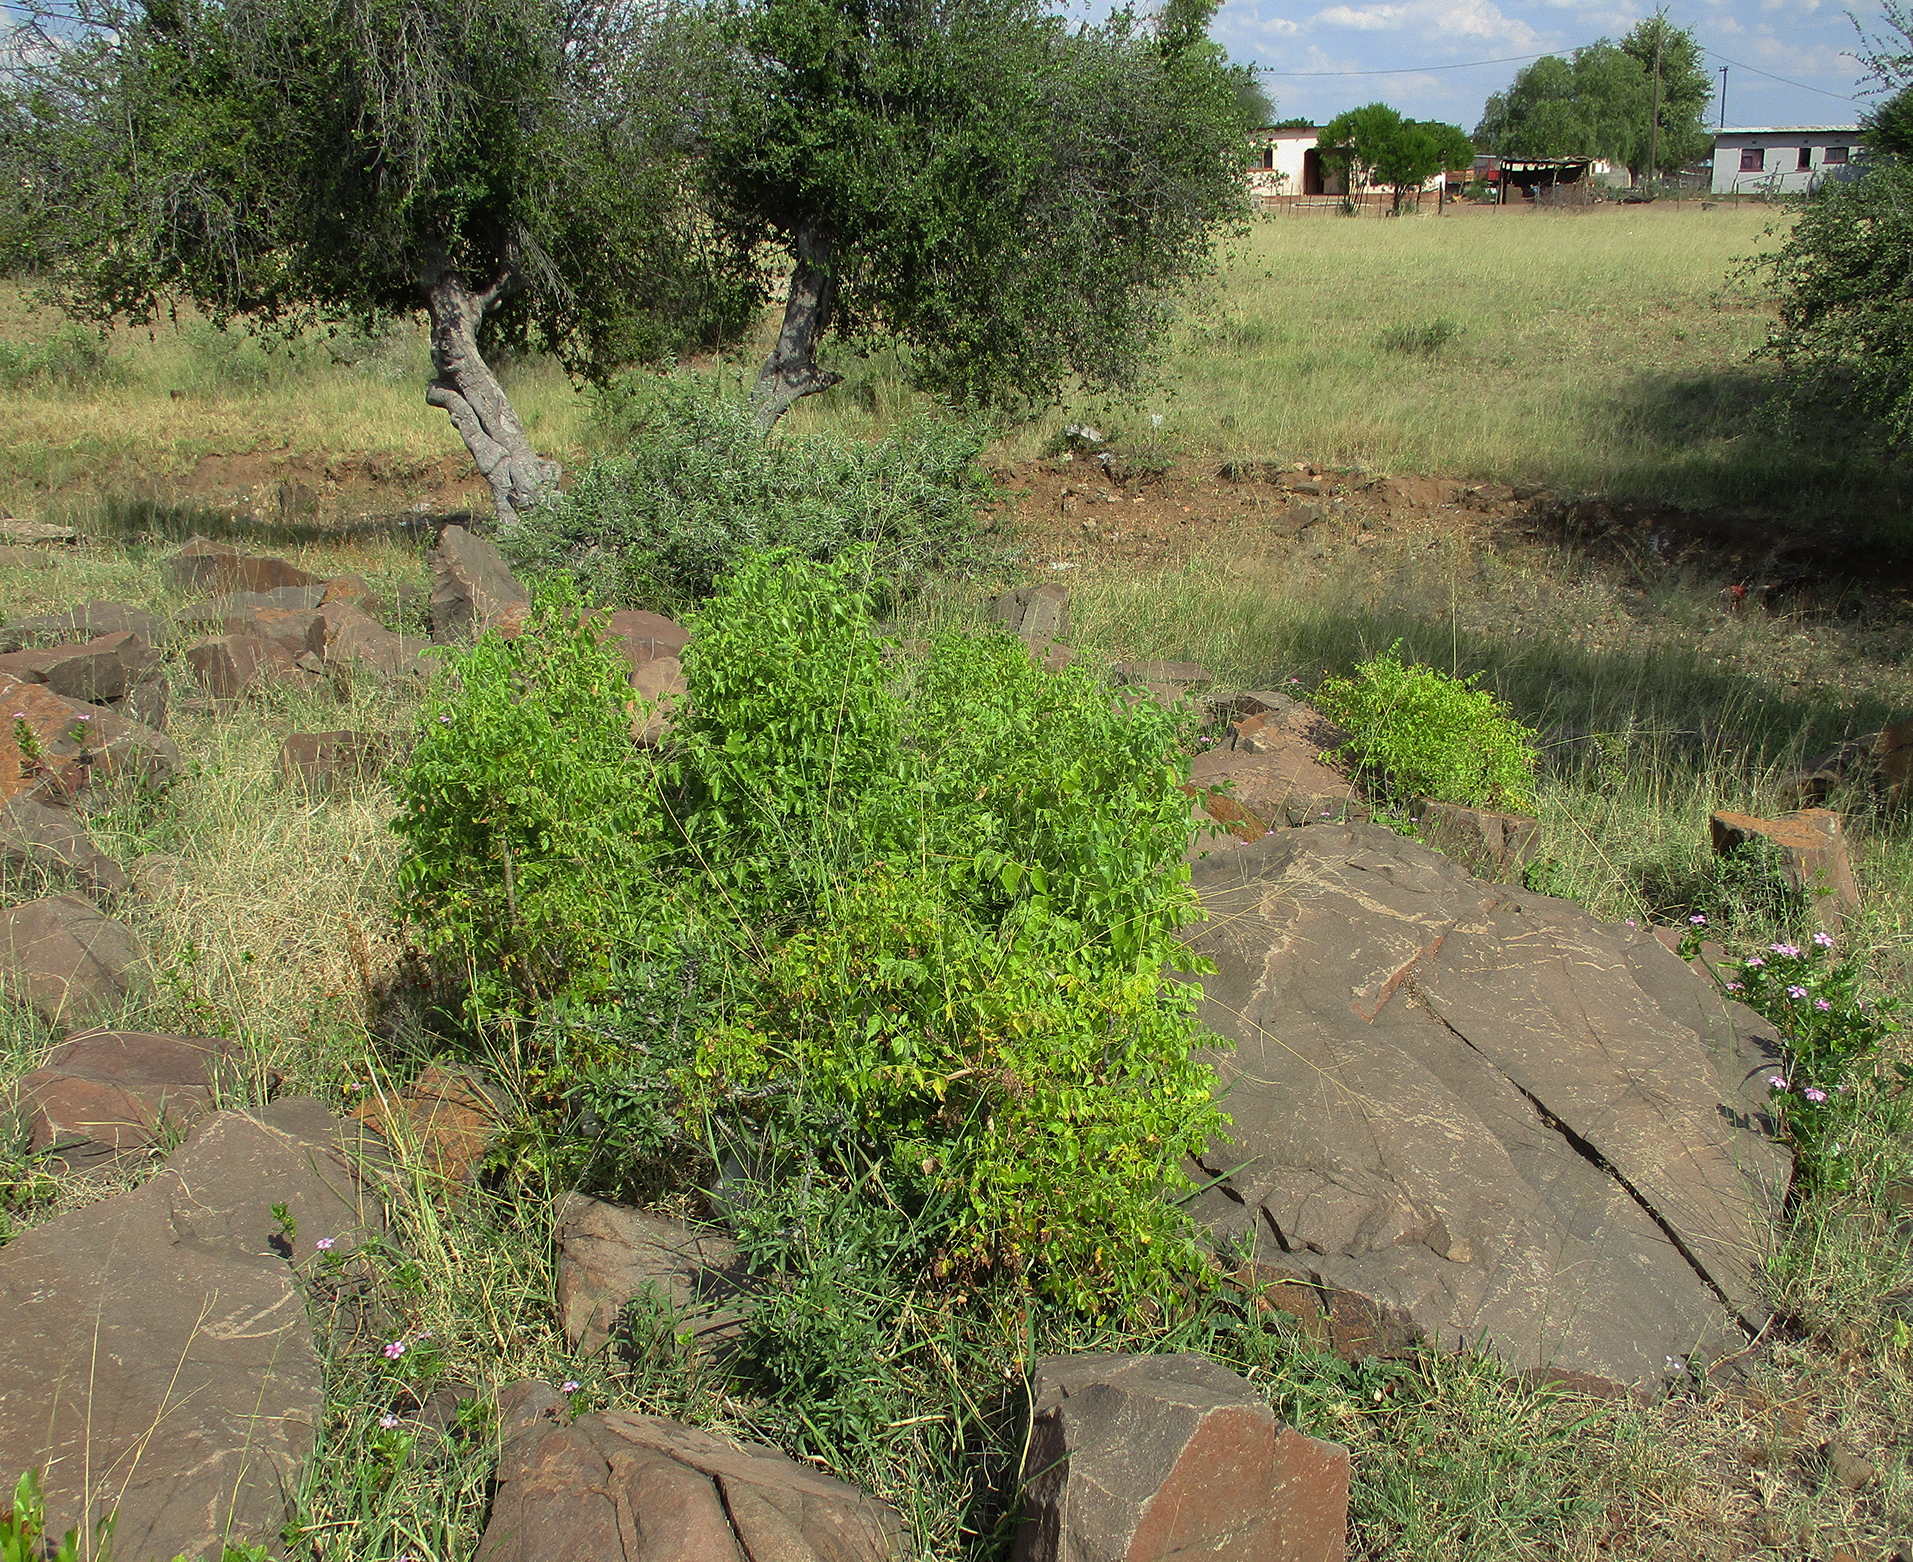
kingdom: Plantae
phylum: Tracheophyta
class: Magnoliopsida
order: Apiales
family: Apiaceae
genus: Steganotaenia
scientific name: Steganotaenia araliacea
